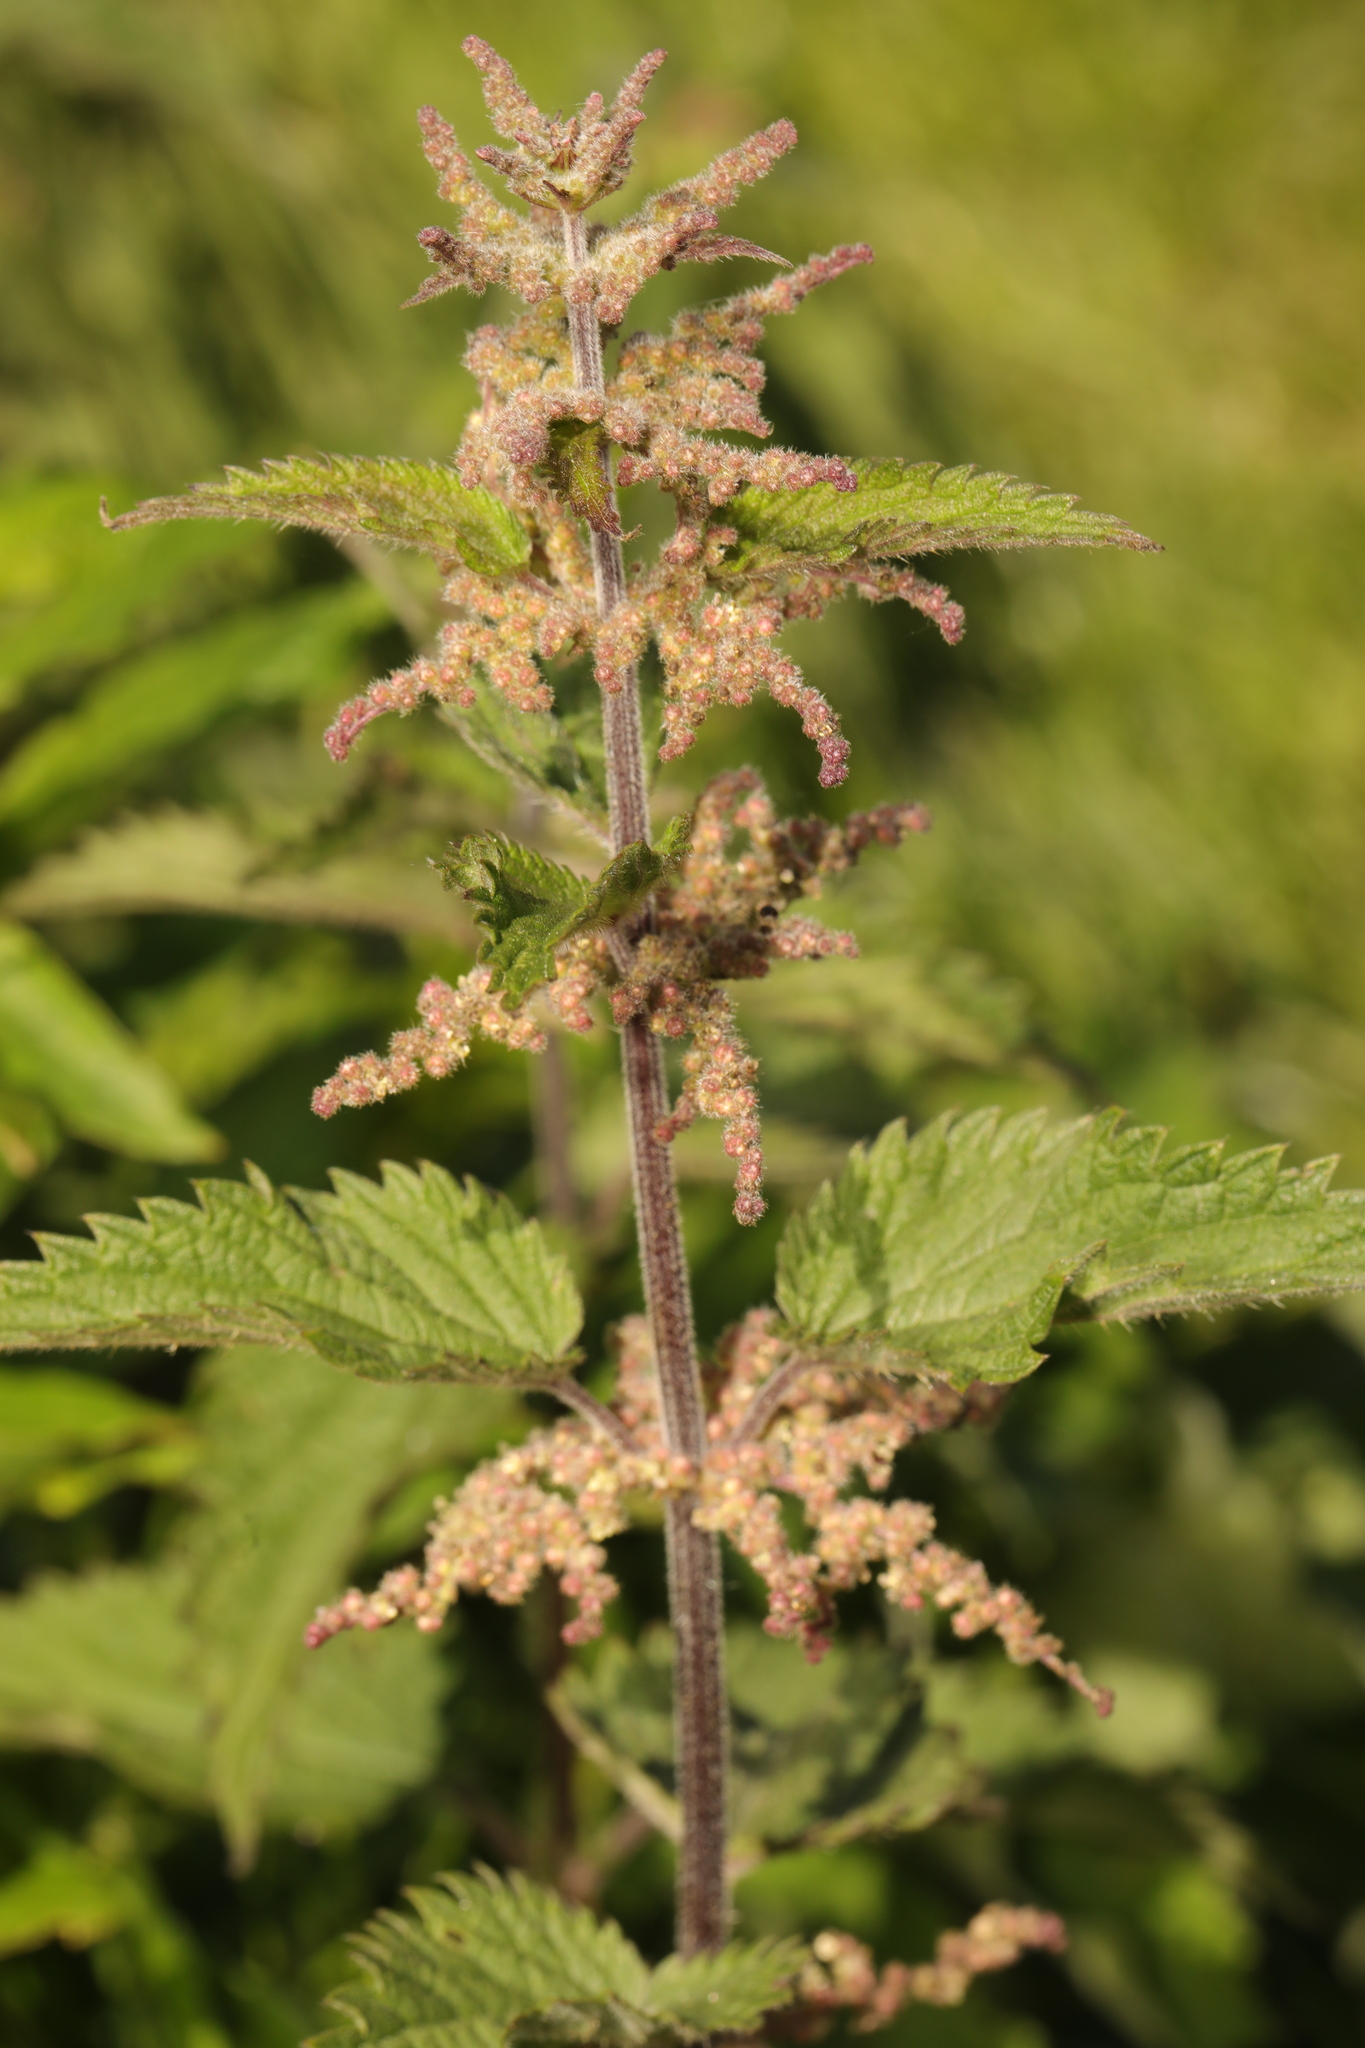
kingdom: Plantae
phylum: Tracheophyta
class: Magnoliopsida
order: Rosales
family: Urticaceae
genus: Urtica
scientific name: Urtica dioica
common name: Common nettle
